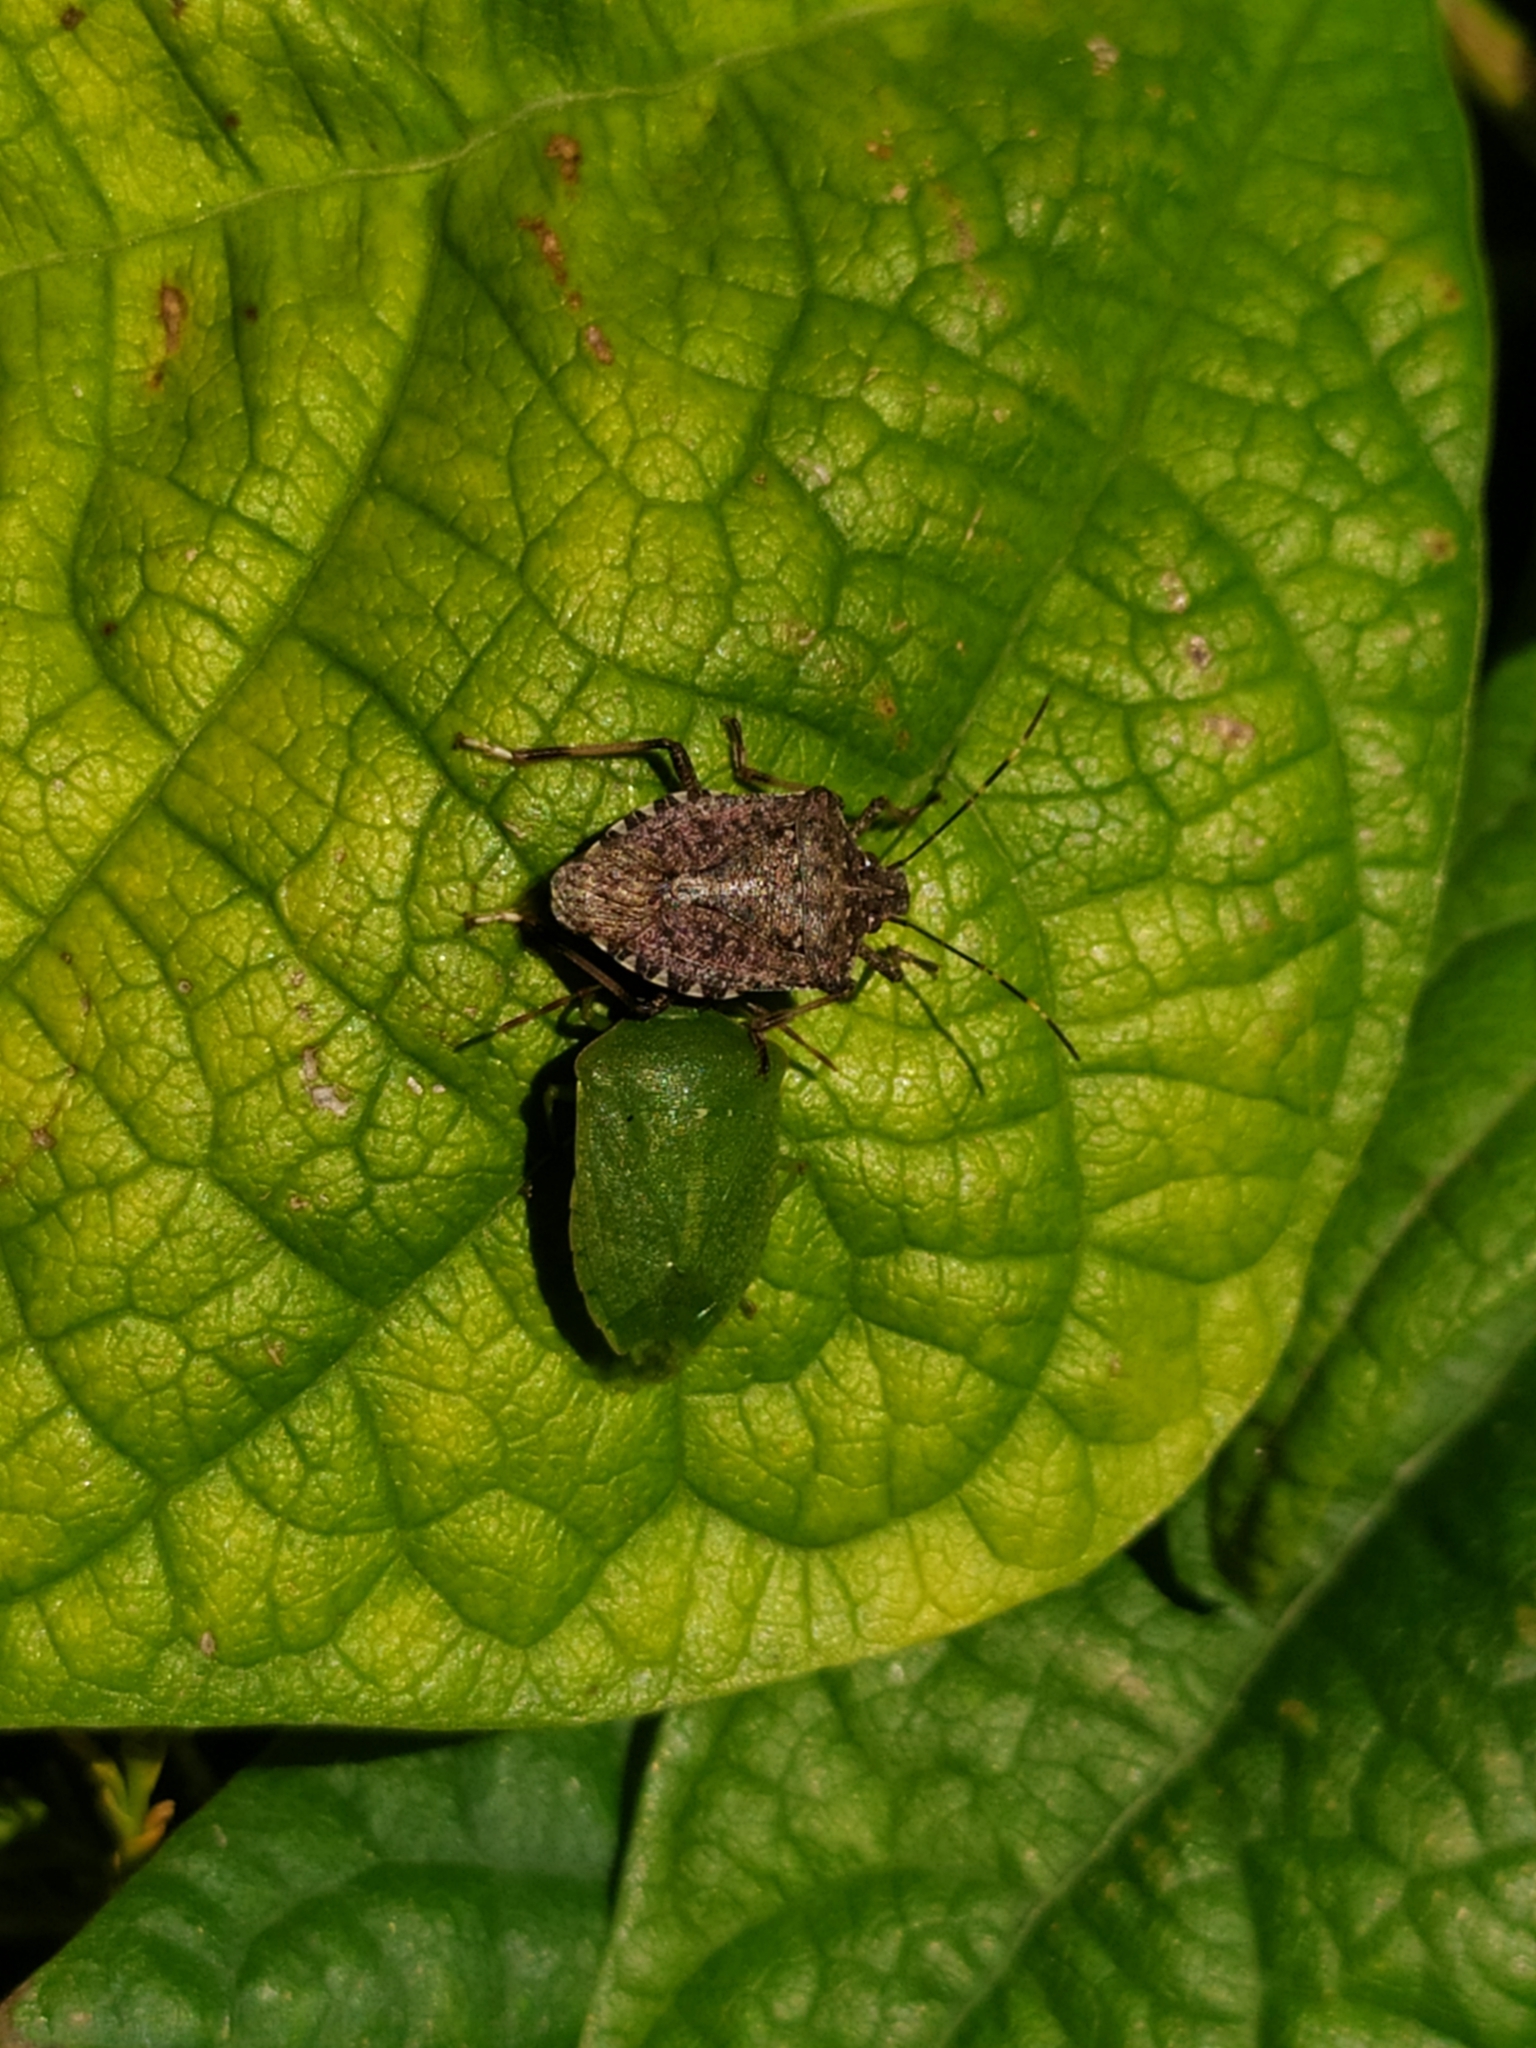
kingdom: Animalia
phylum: Arthropoda
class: Insecta
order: Hemiptera
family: Pentatomidae
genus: Halyomorpha
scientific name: Halyomorpha halys
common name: Brown marmorated stink bug
